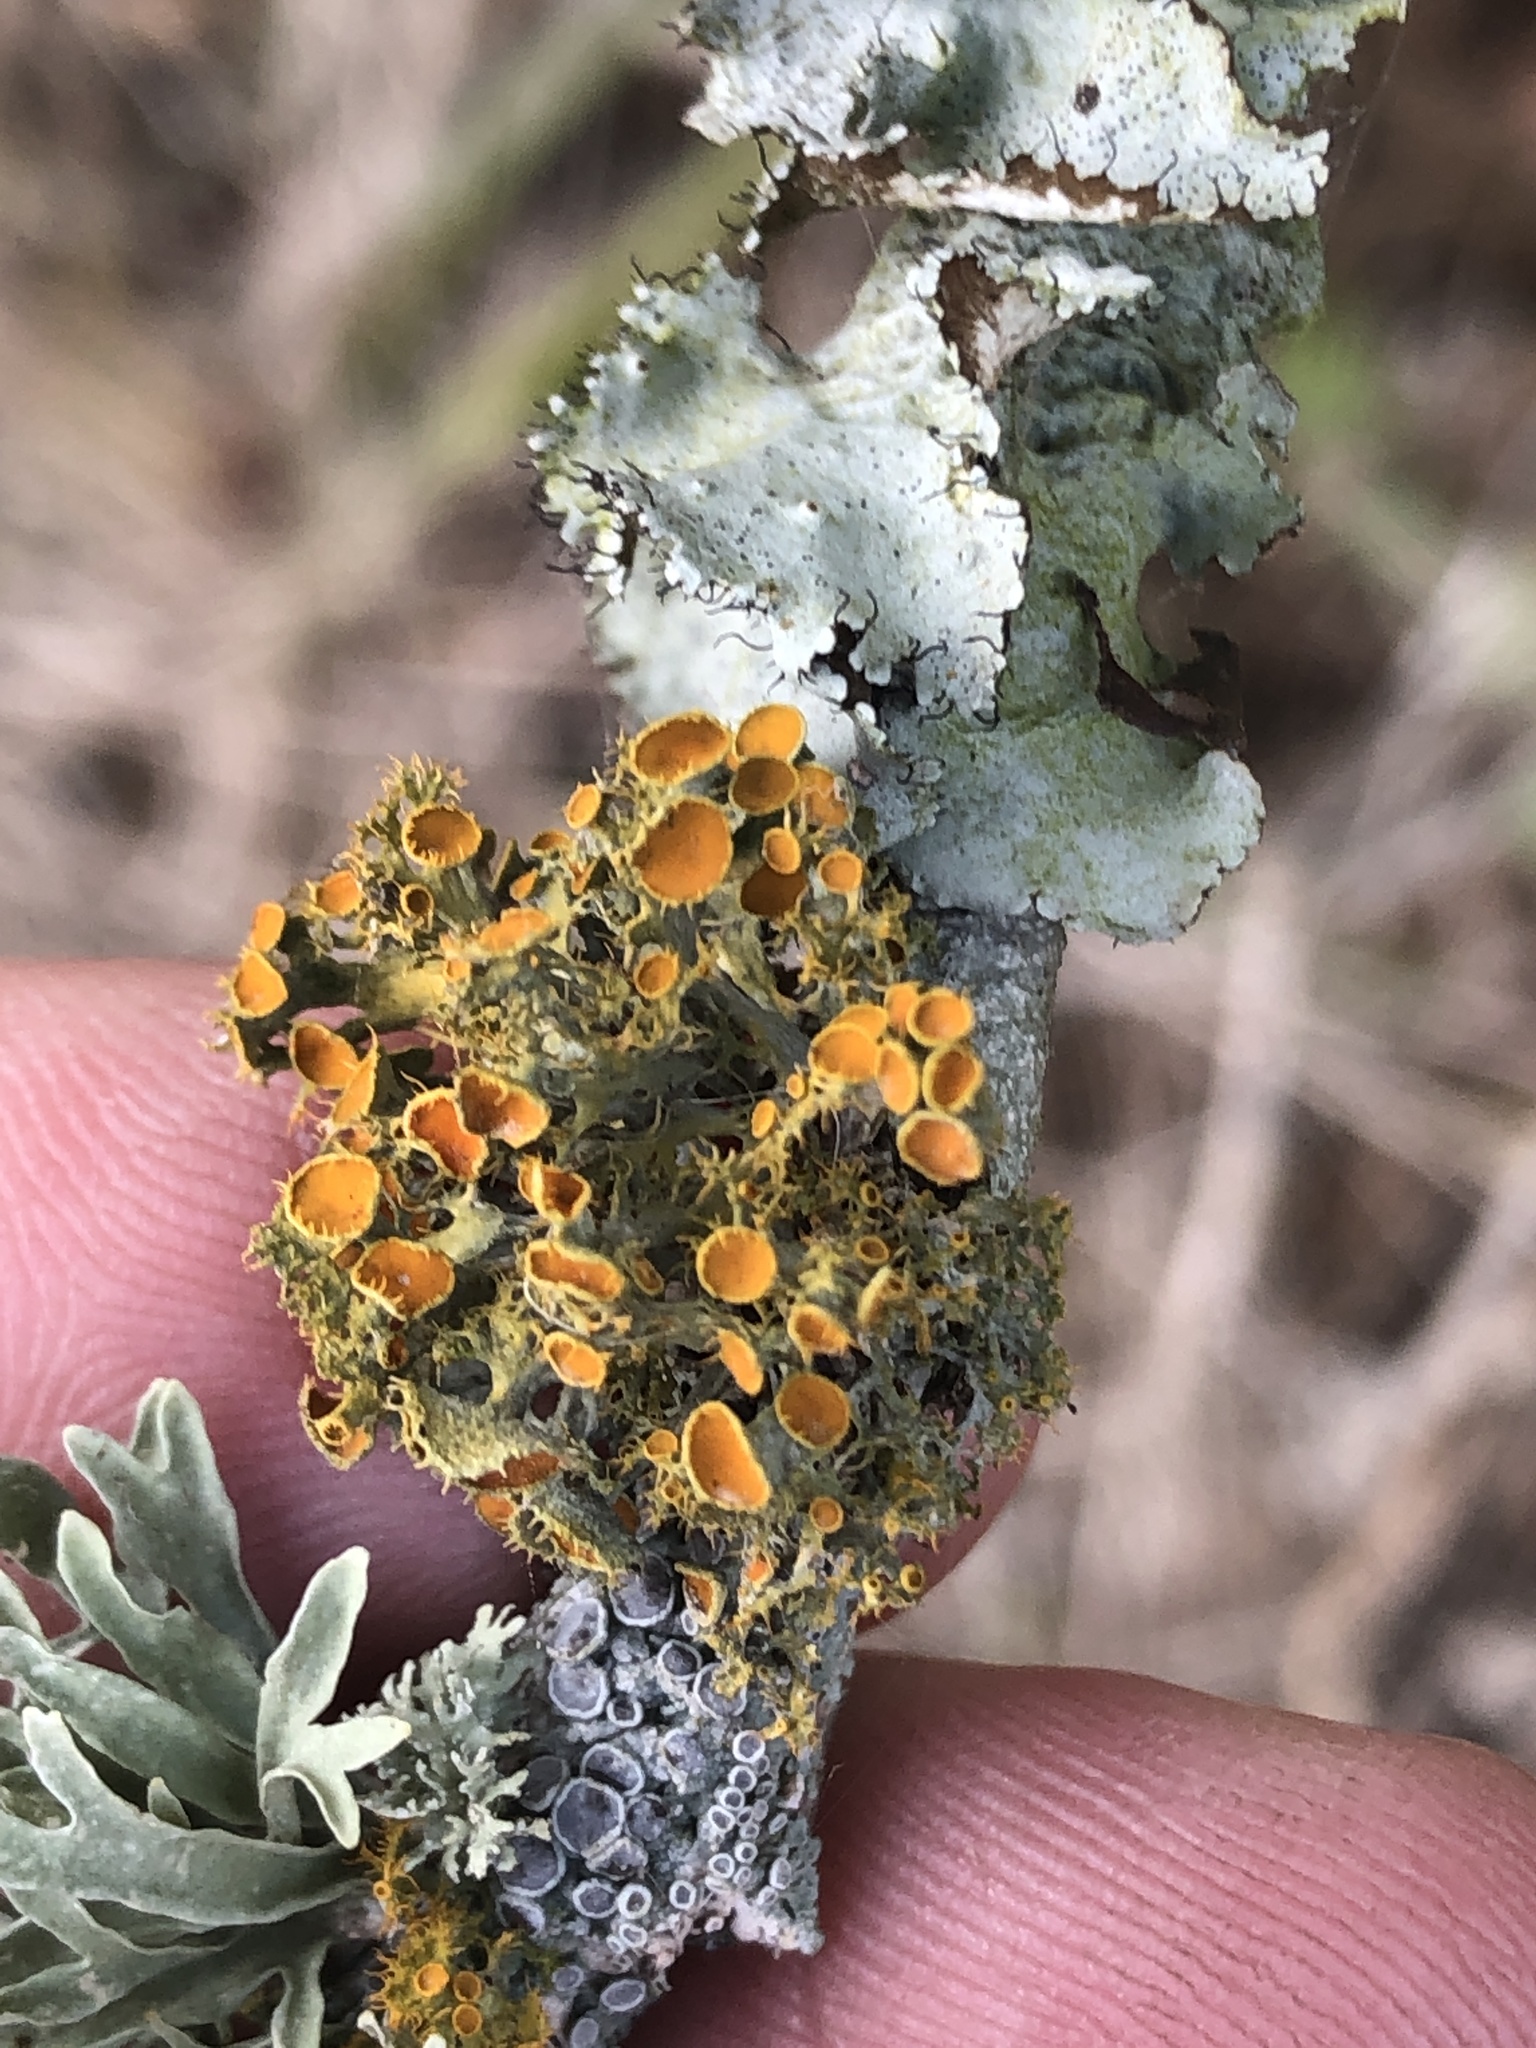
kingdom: Fungi
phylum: Ascomycota
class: Lecanoromycetes
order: Teloschistales
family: Teloschistaceae
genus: Niorma
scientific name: Niorma chrysophthalma
